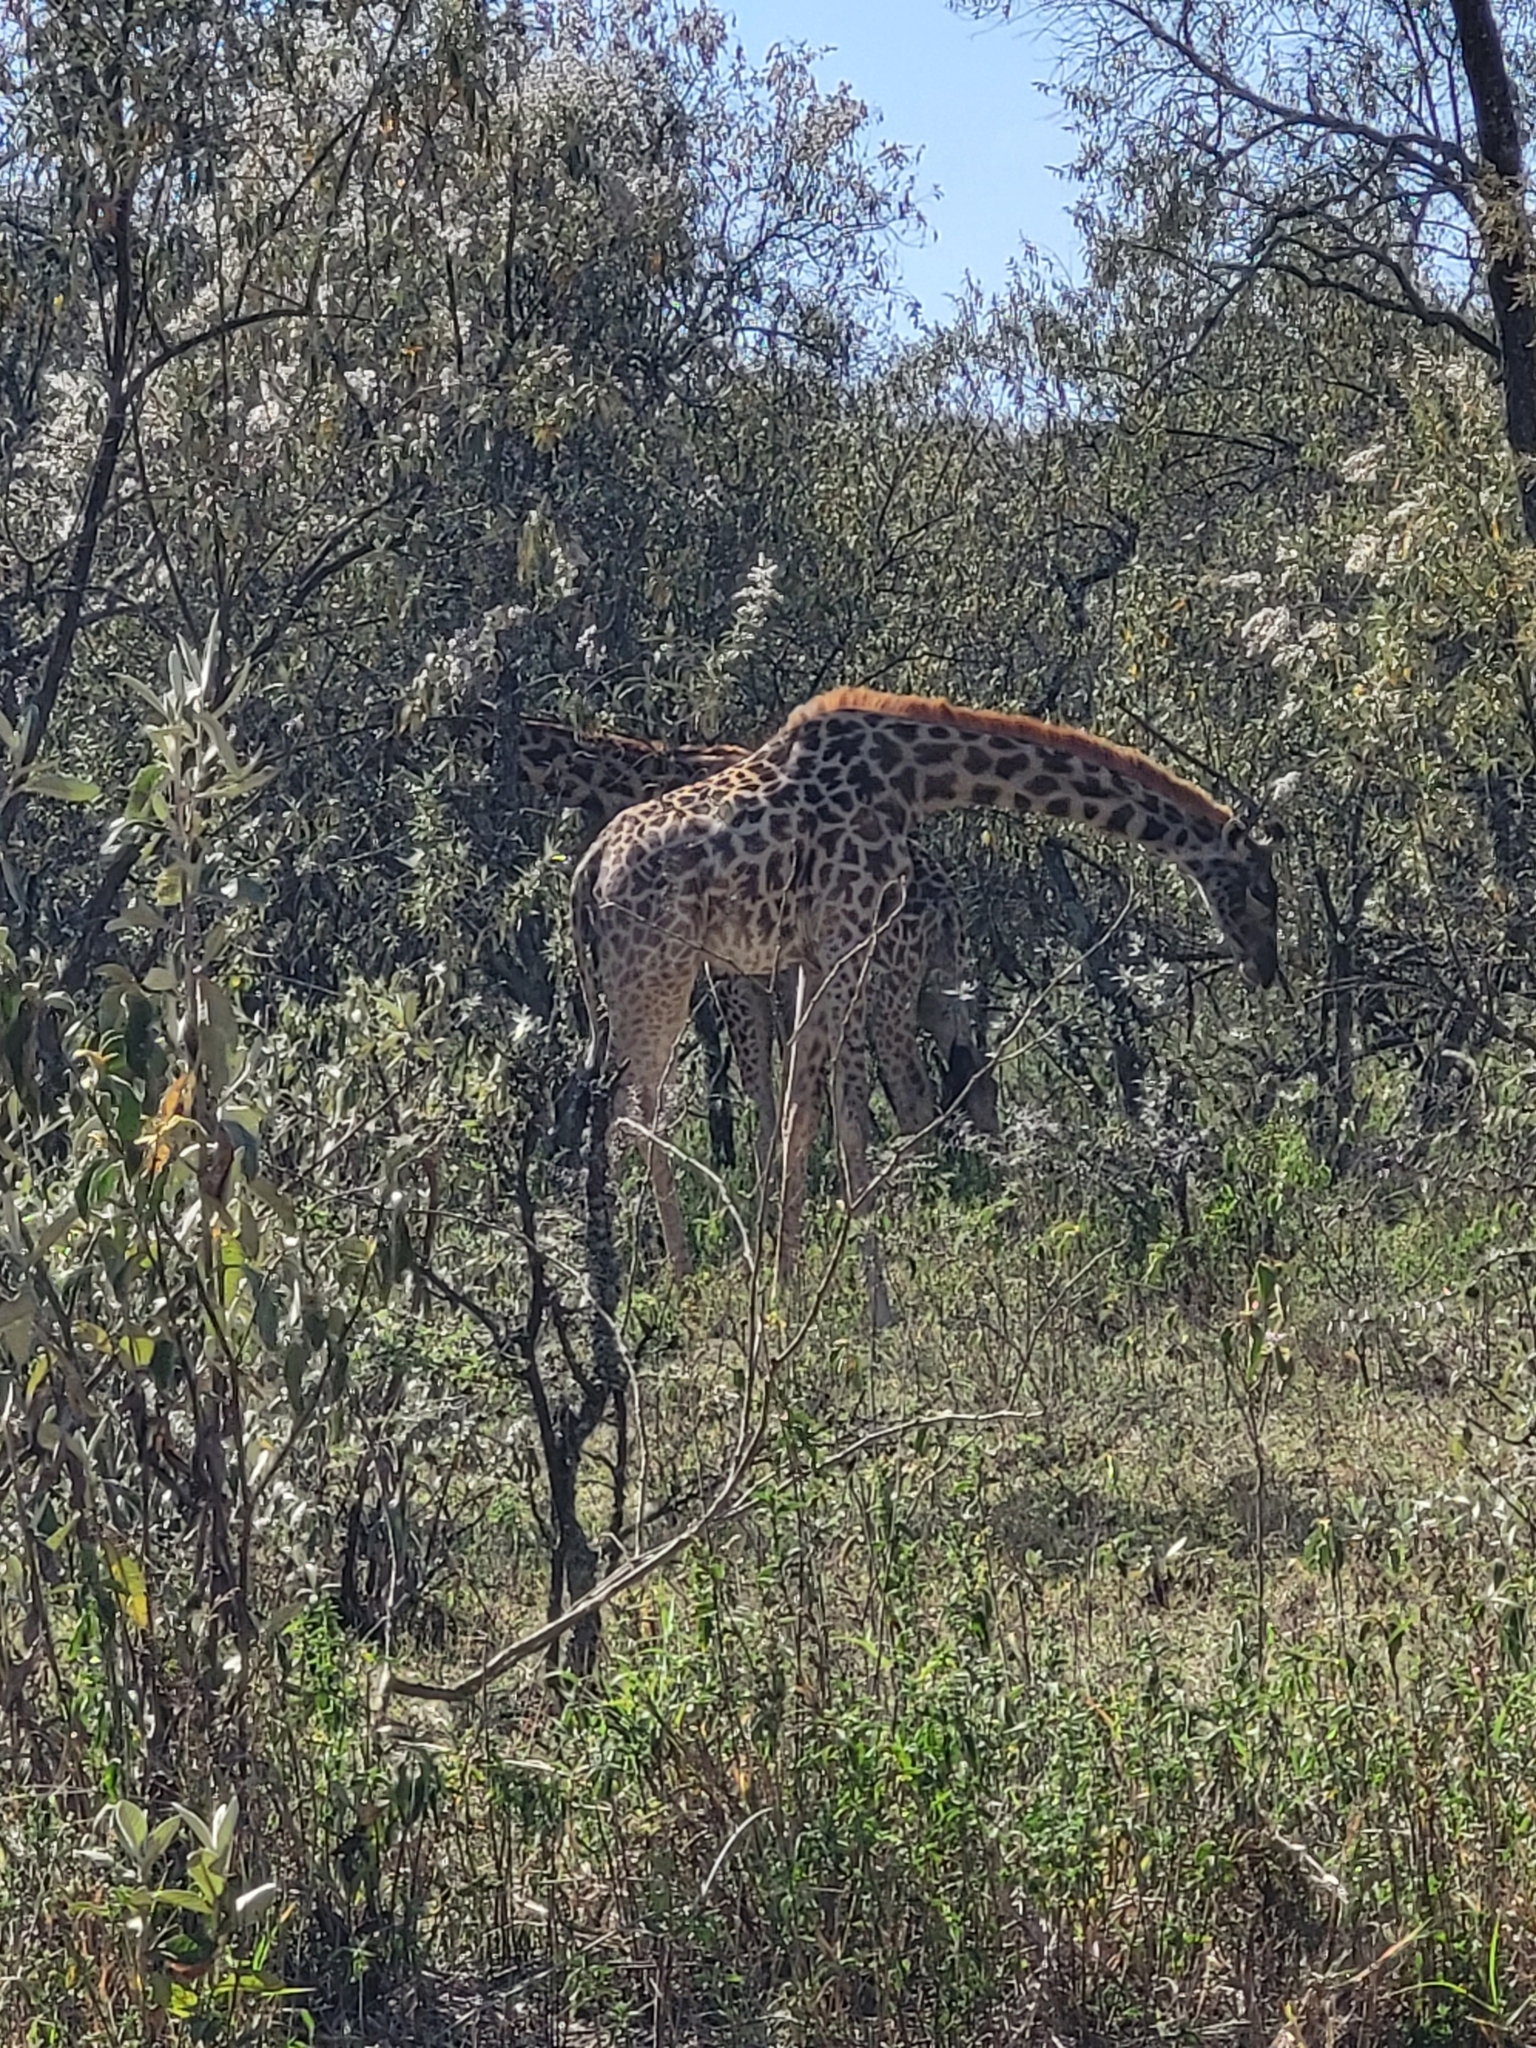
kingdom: Animalia
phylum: Chordata
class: Mammalia
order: Artiodactyla
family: Giraffidae
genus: Giraffa
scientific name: Giraffa tippelskirchi
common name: Masai giraffe
